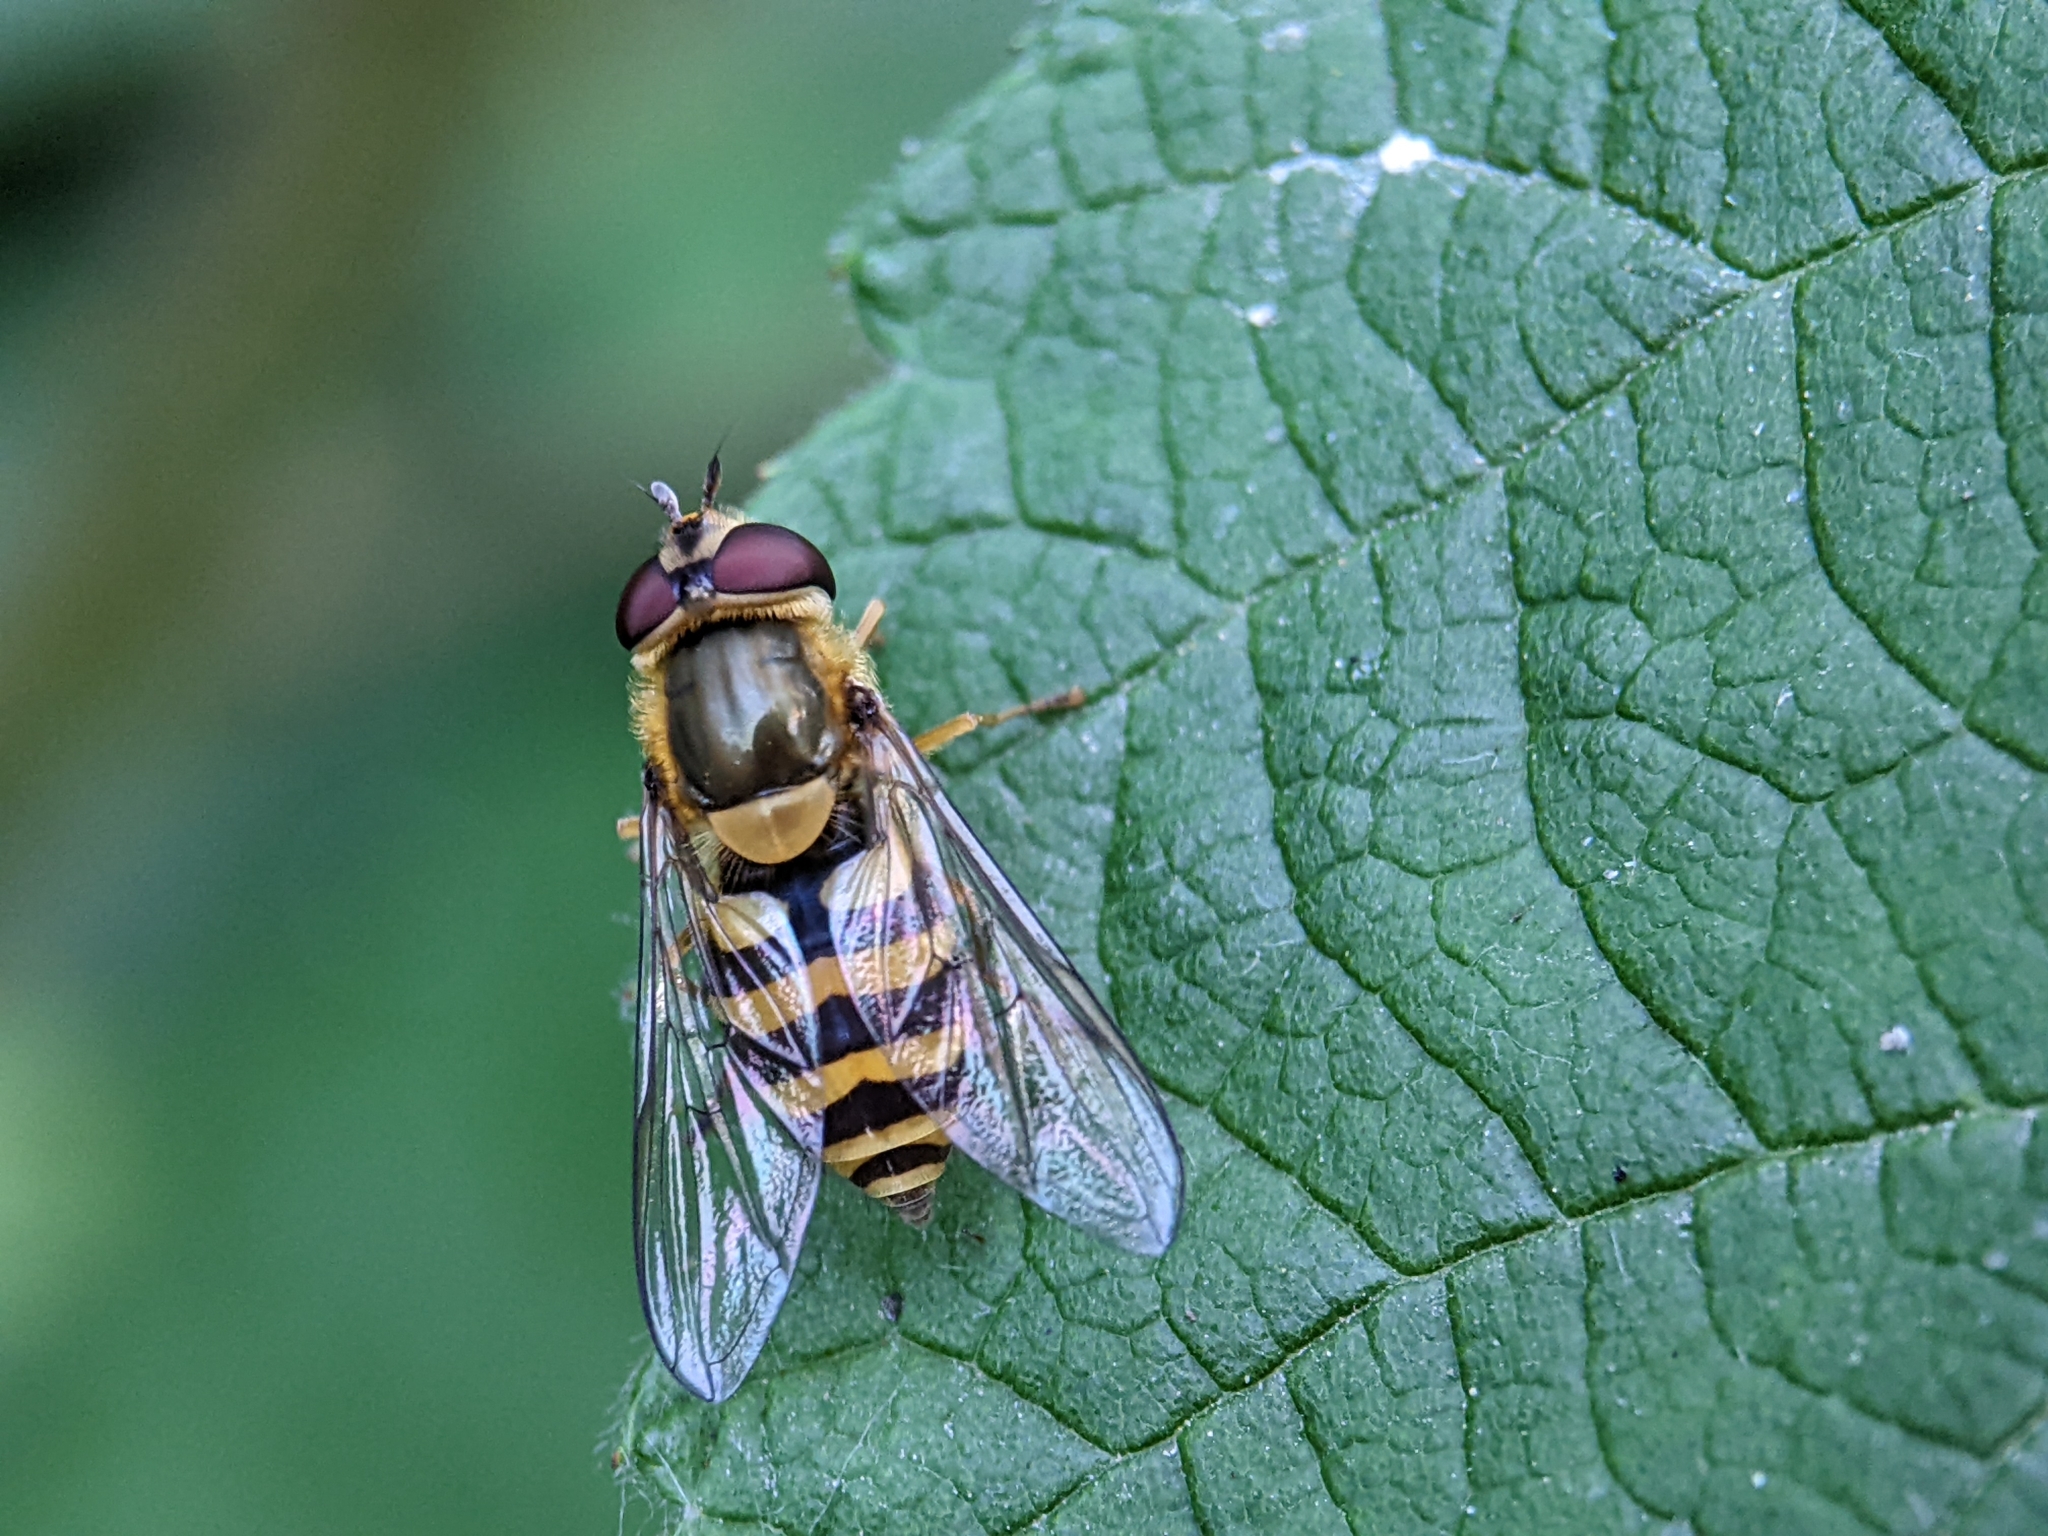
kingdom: Animalia
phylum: Arthropoda
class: Insecta
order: Diptera
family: Syrphidae
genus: Syrphus
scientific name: Syrphus
